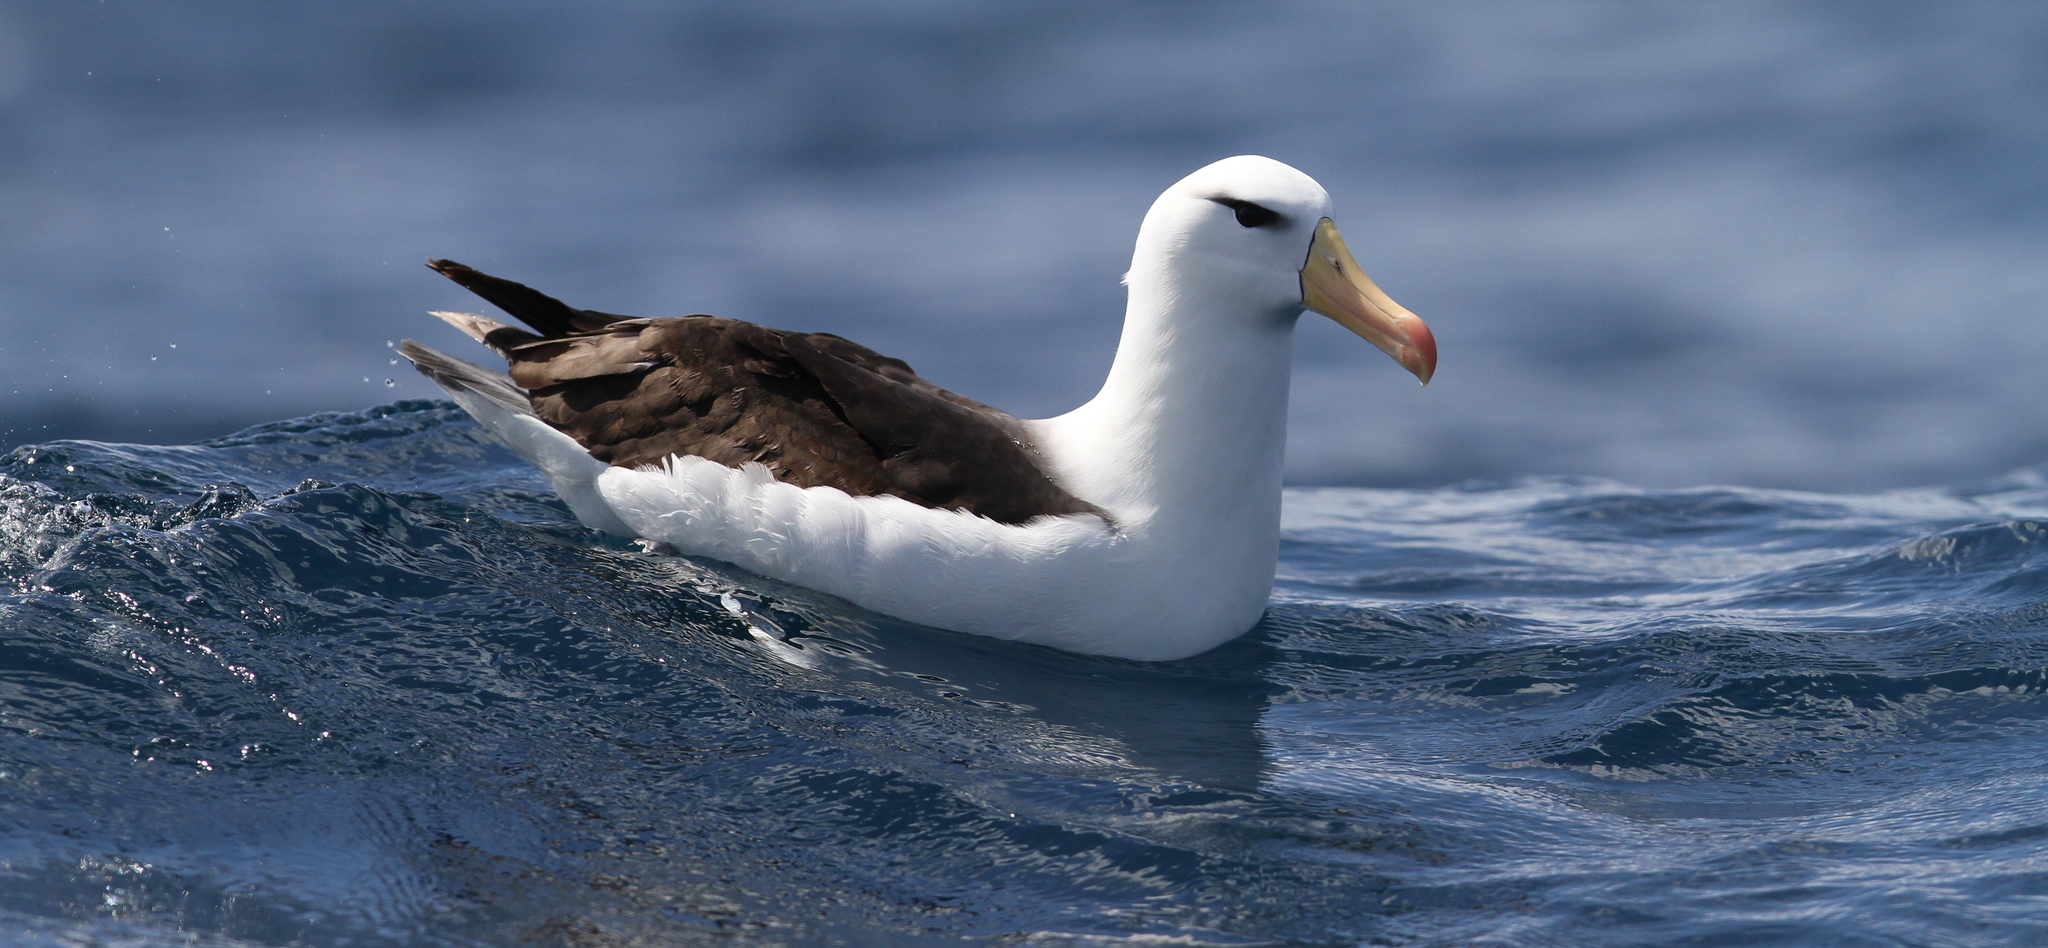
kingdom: Animalia
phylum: Chordata
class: Aves
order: Procellariiformes
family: Diomedeidae
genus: Thalassarche
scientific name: Thalassarche melanophris
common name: Black-browed albatross
